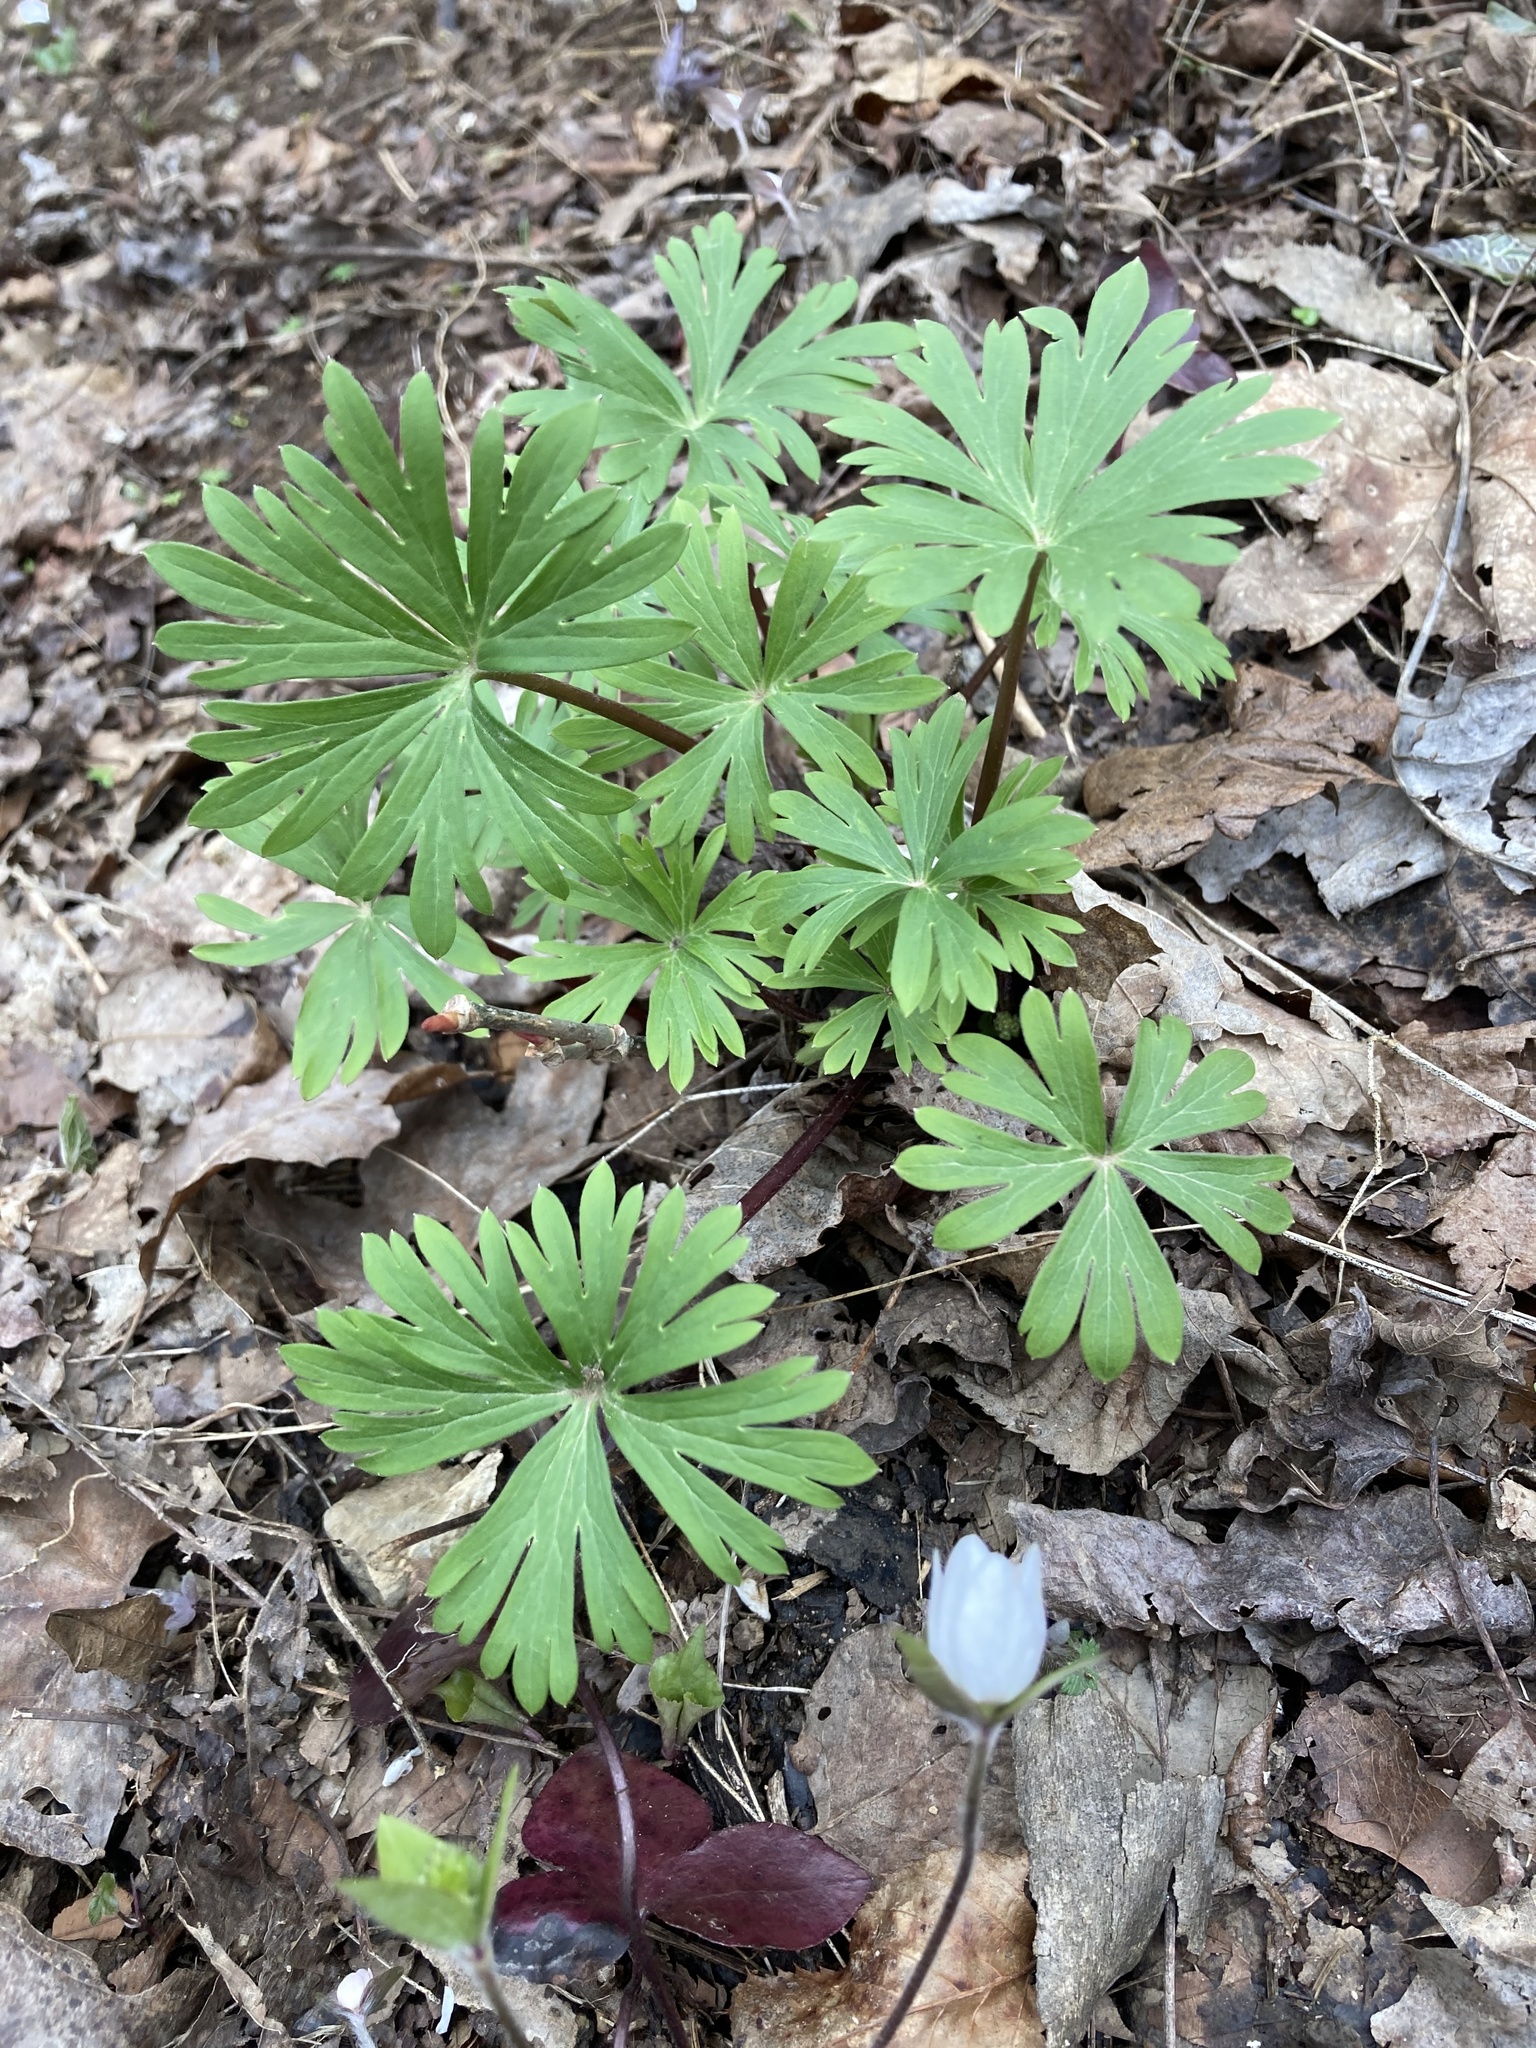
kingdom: Plantae
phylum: Tracheophyta
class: Magnoliopsida
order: Ranunculales
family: Ranunculaceae
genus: Delphinium
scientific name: Delphinium tricorne
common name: Dwarf larkspur
